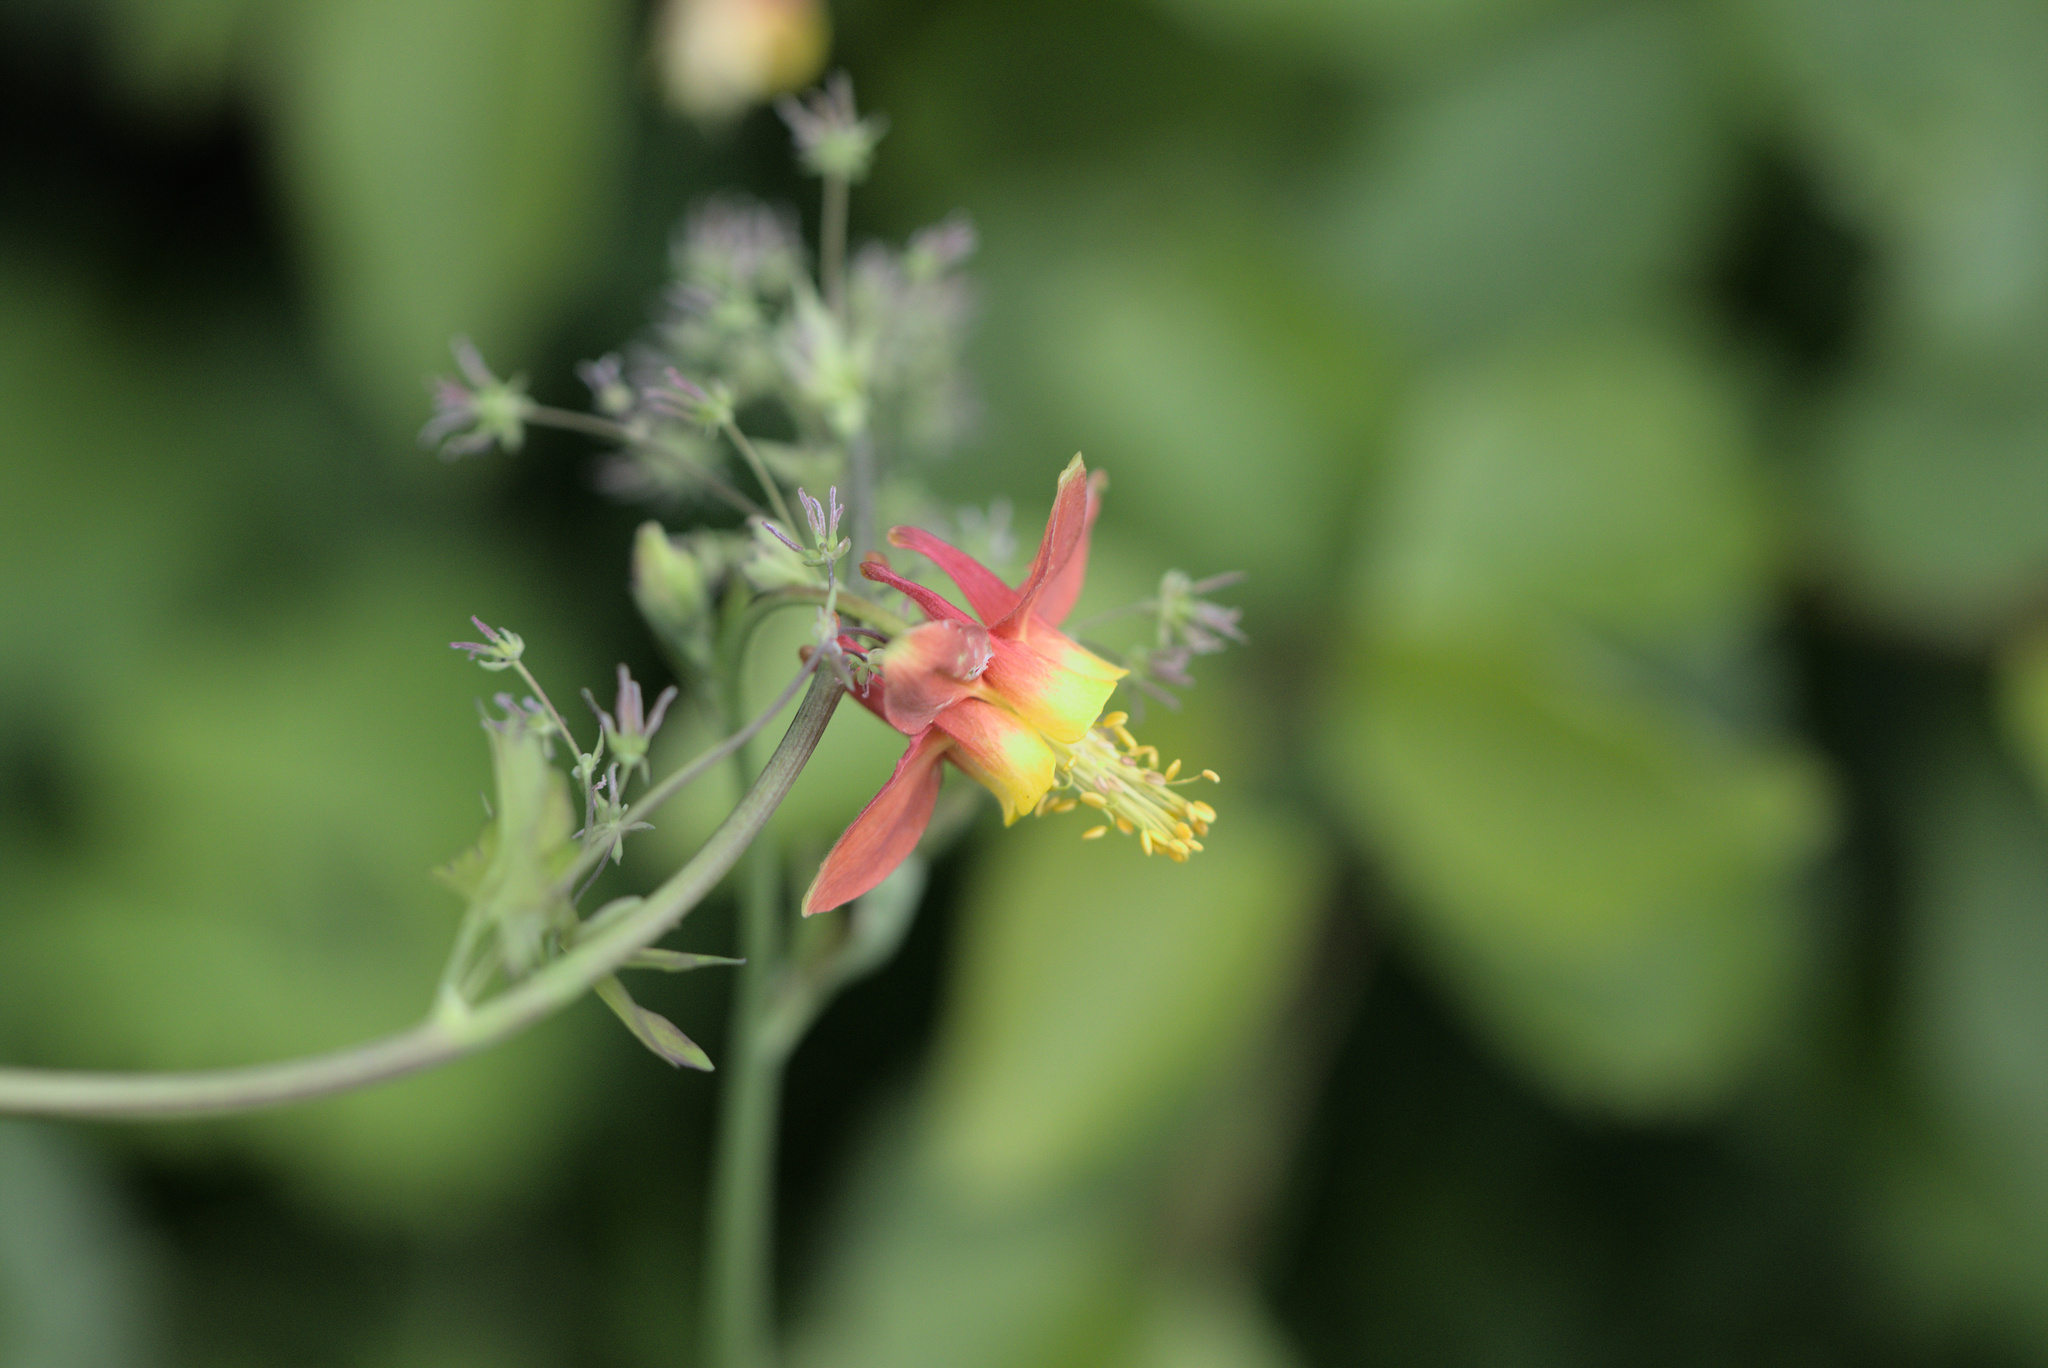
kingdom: Plantae
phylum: Tracheophyta
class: Magnoliopsida
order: Ranunculales
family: Ranunculaceae
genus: Aquilegia
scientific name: Aquilegia formosa
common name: Sitka columbine
